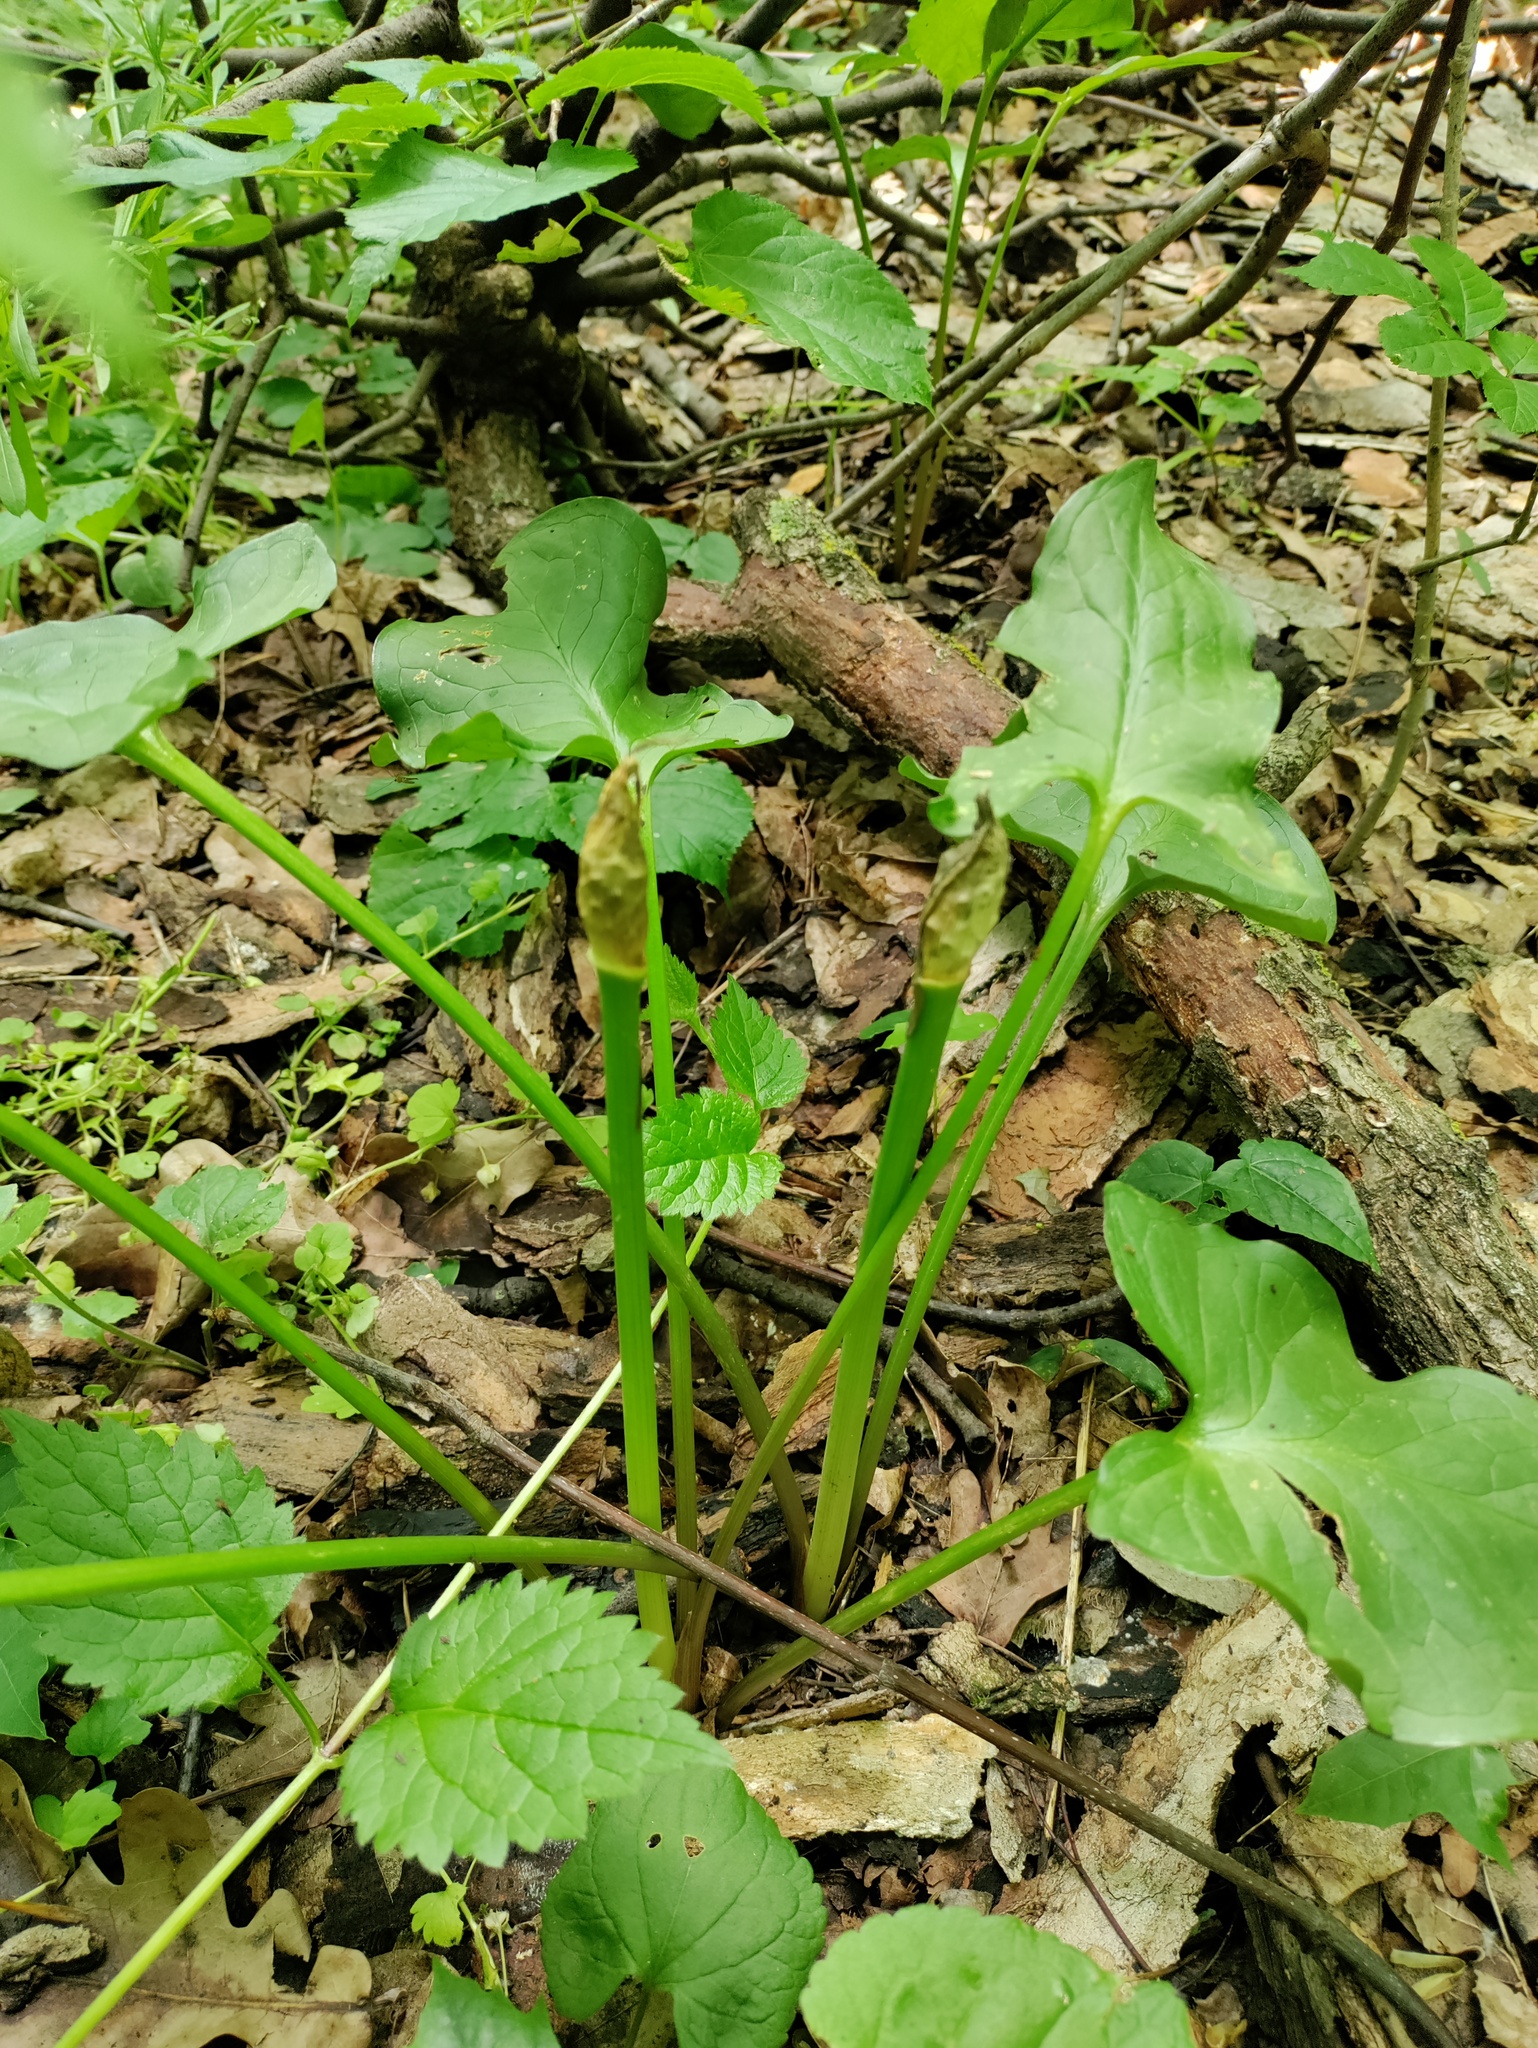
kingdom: Plantae
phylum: Tracheophyta
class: Liliopsida
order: Alismatales
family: Araceae
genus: Arum
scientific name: Arum cylindraceum
